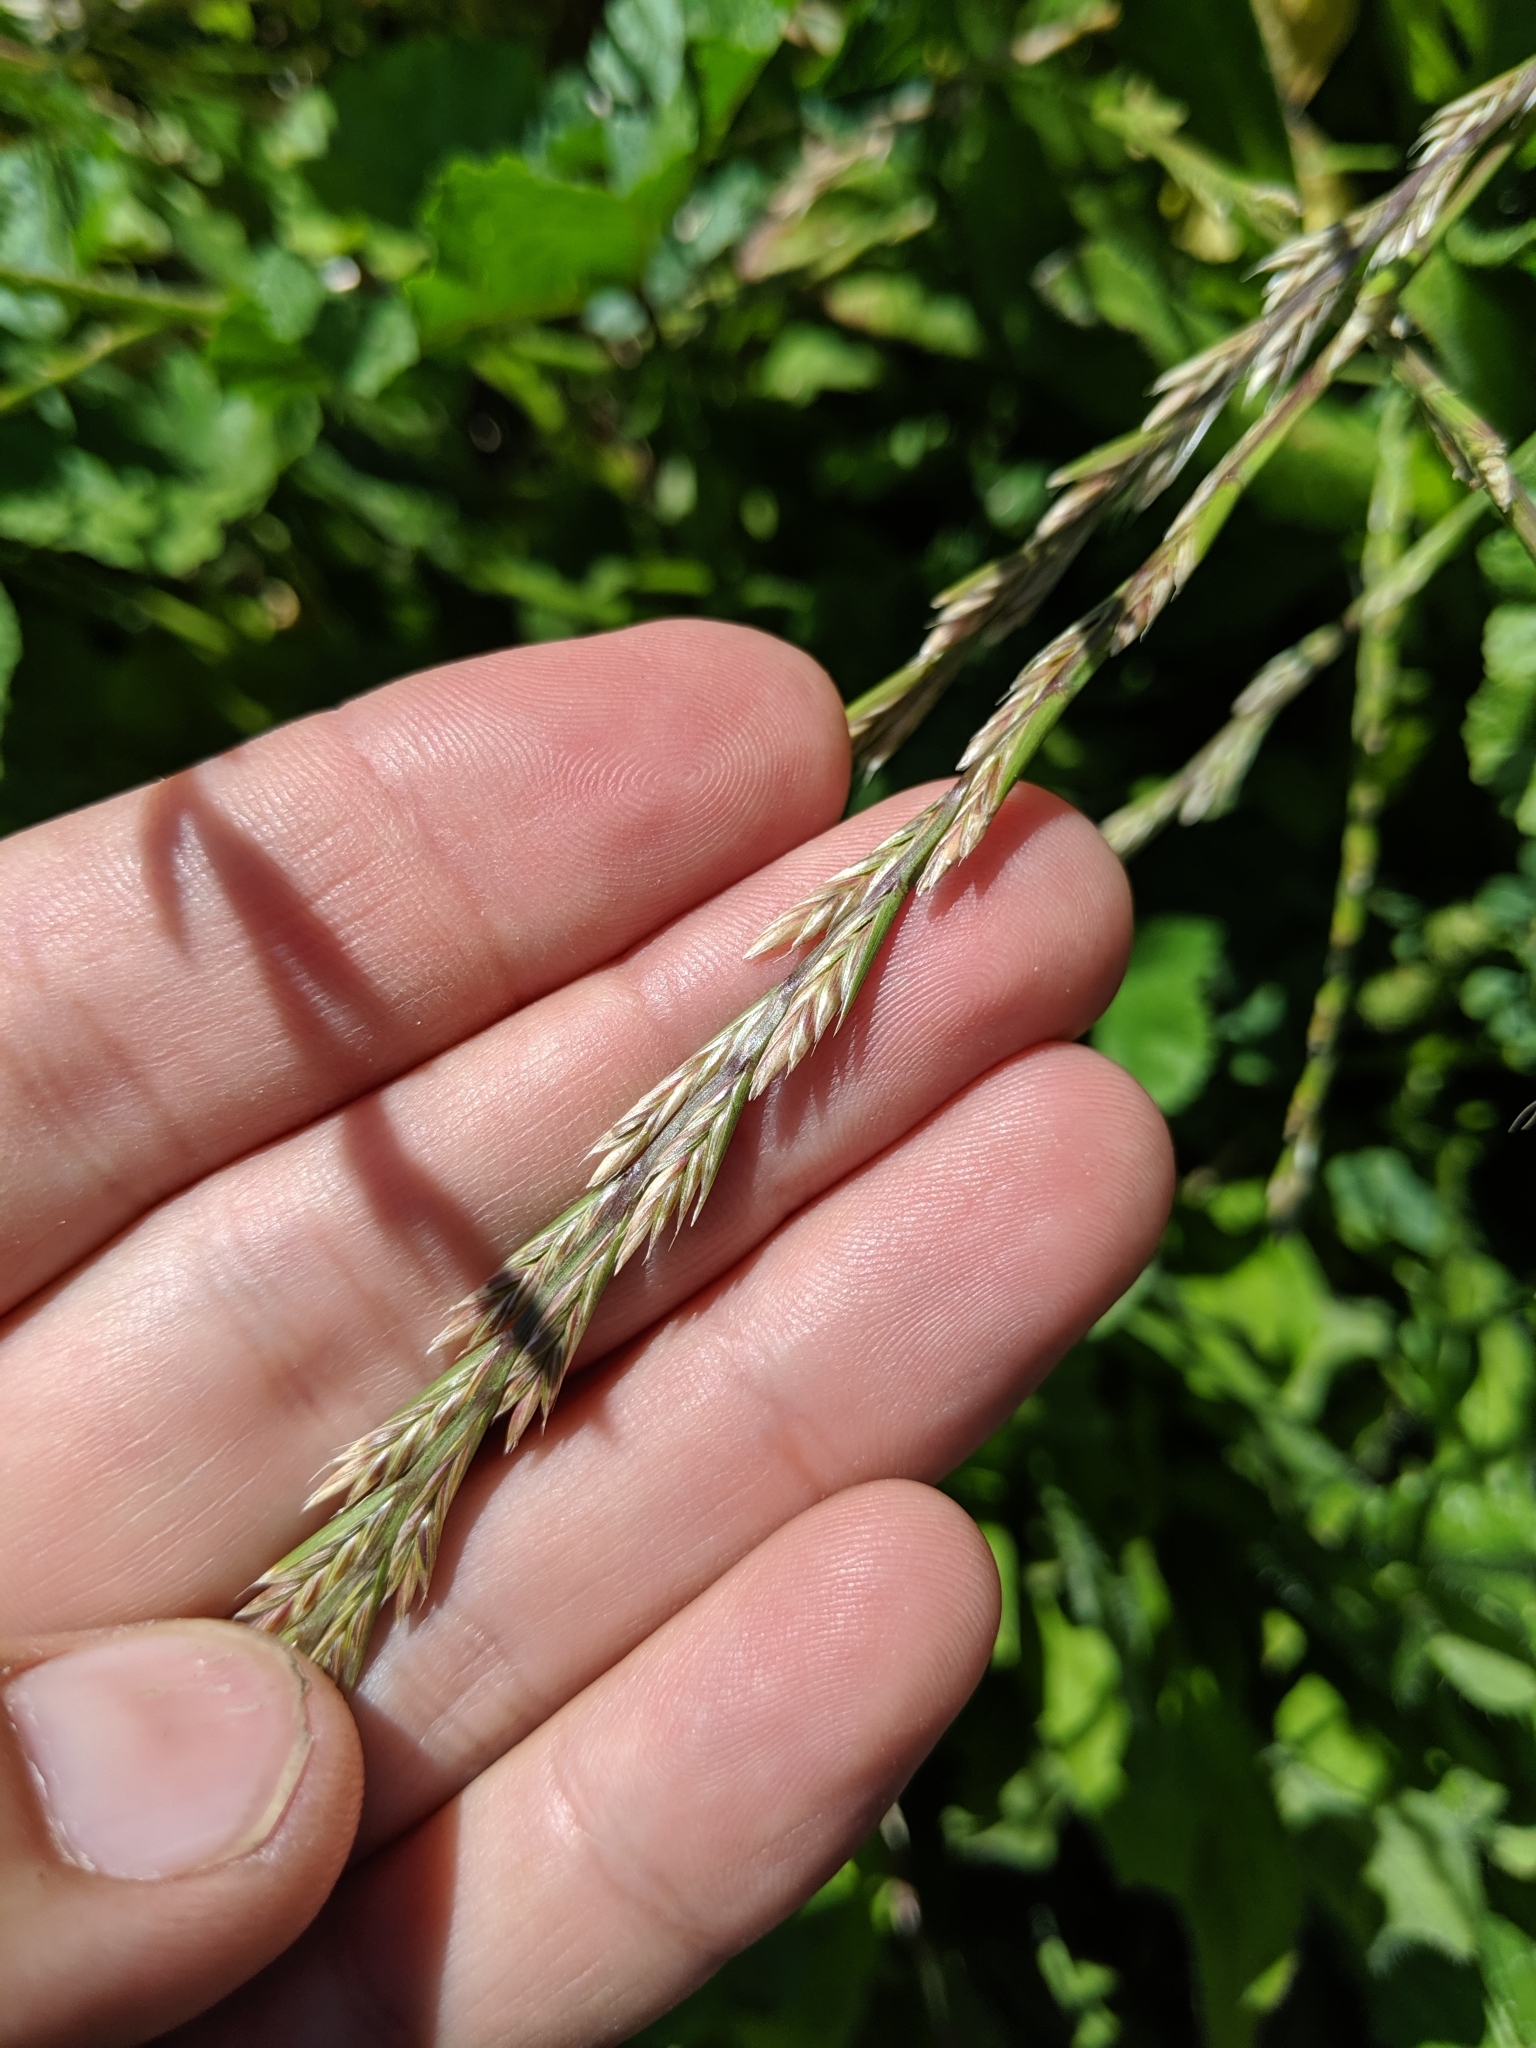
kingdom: Plantae
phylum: Tracheophyta
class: Liliopsida
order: Poales
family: Poaceae
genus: Lolium
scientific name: Lolium perenne
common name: Perennial ryegrass
